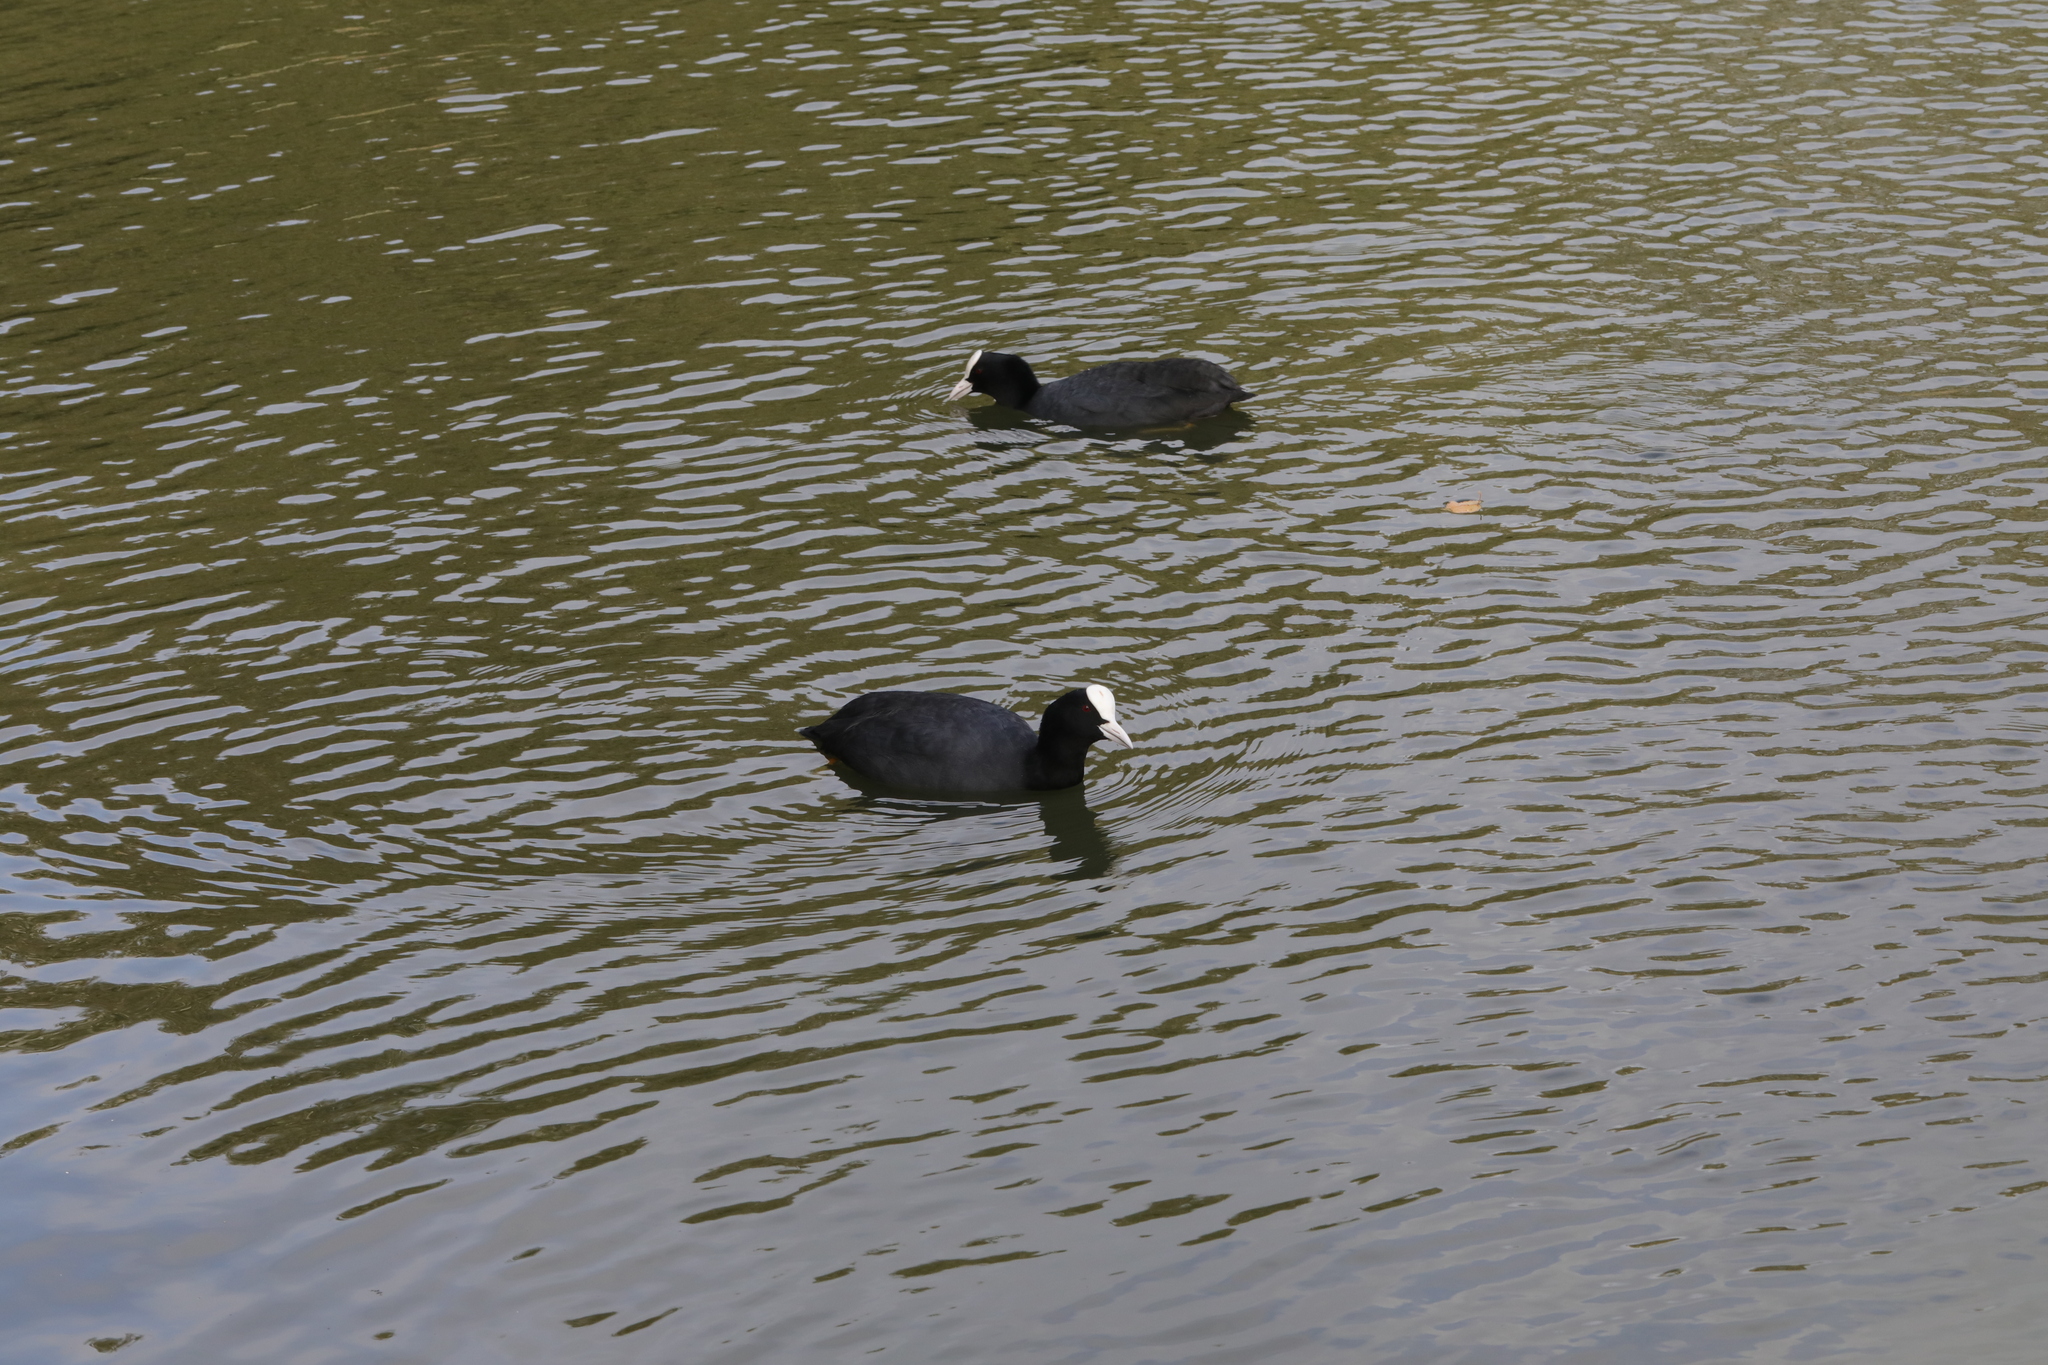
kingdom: Animalia
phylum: Chordata
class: Aves
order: Gruiformes
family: Rallidae
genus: Fulica
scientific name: Fulica atra
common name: Eurasian coot
